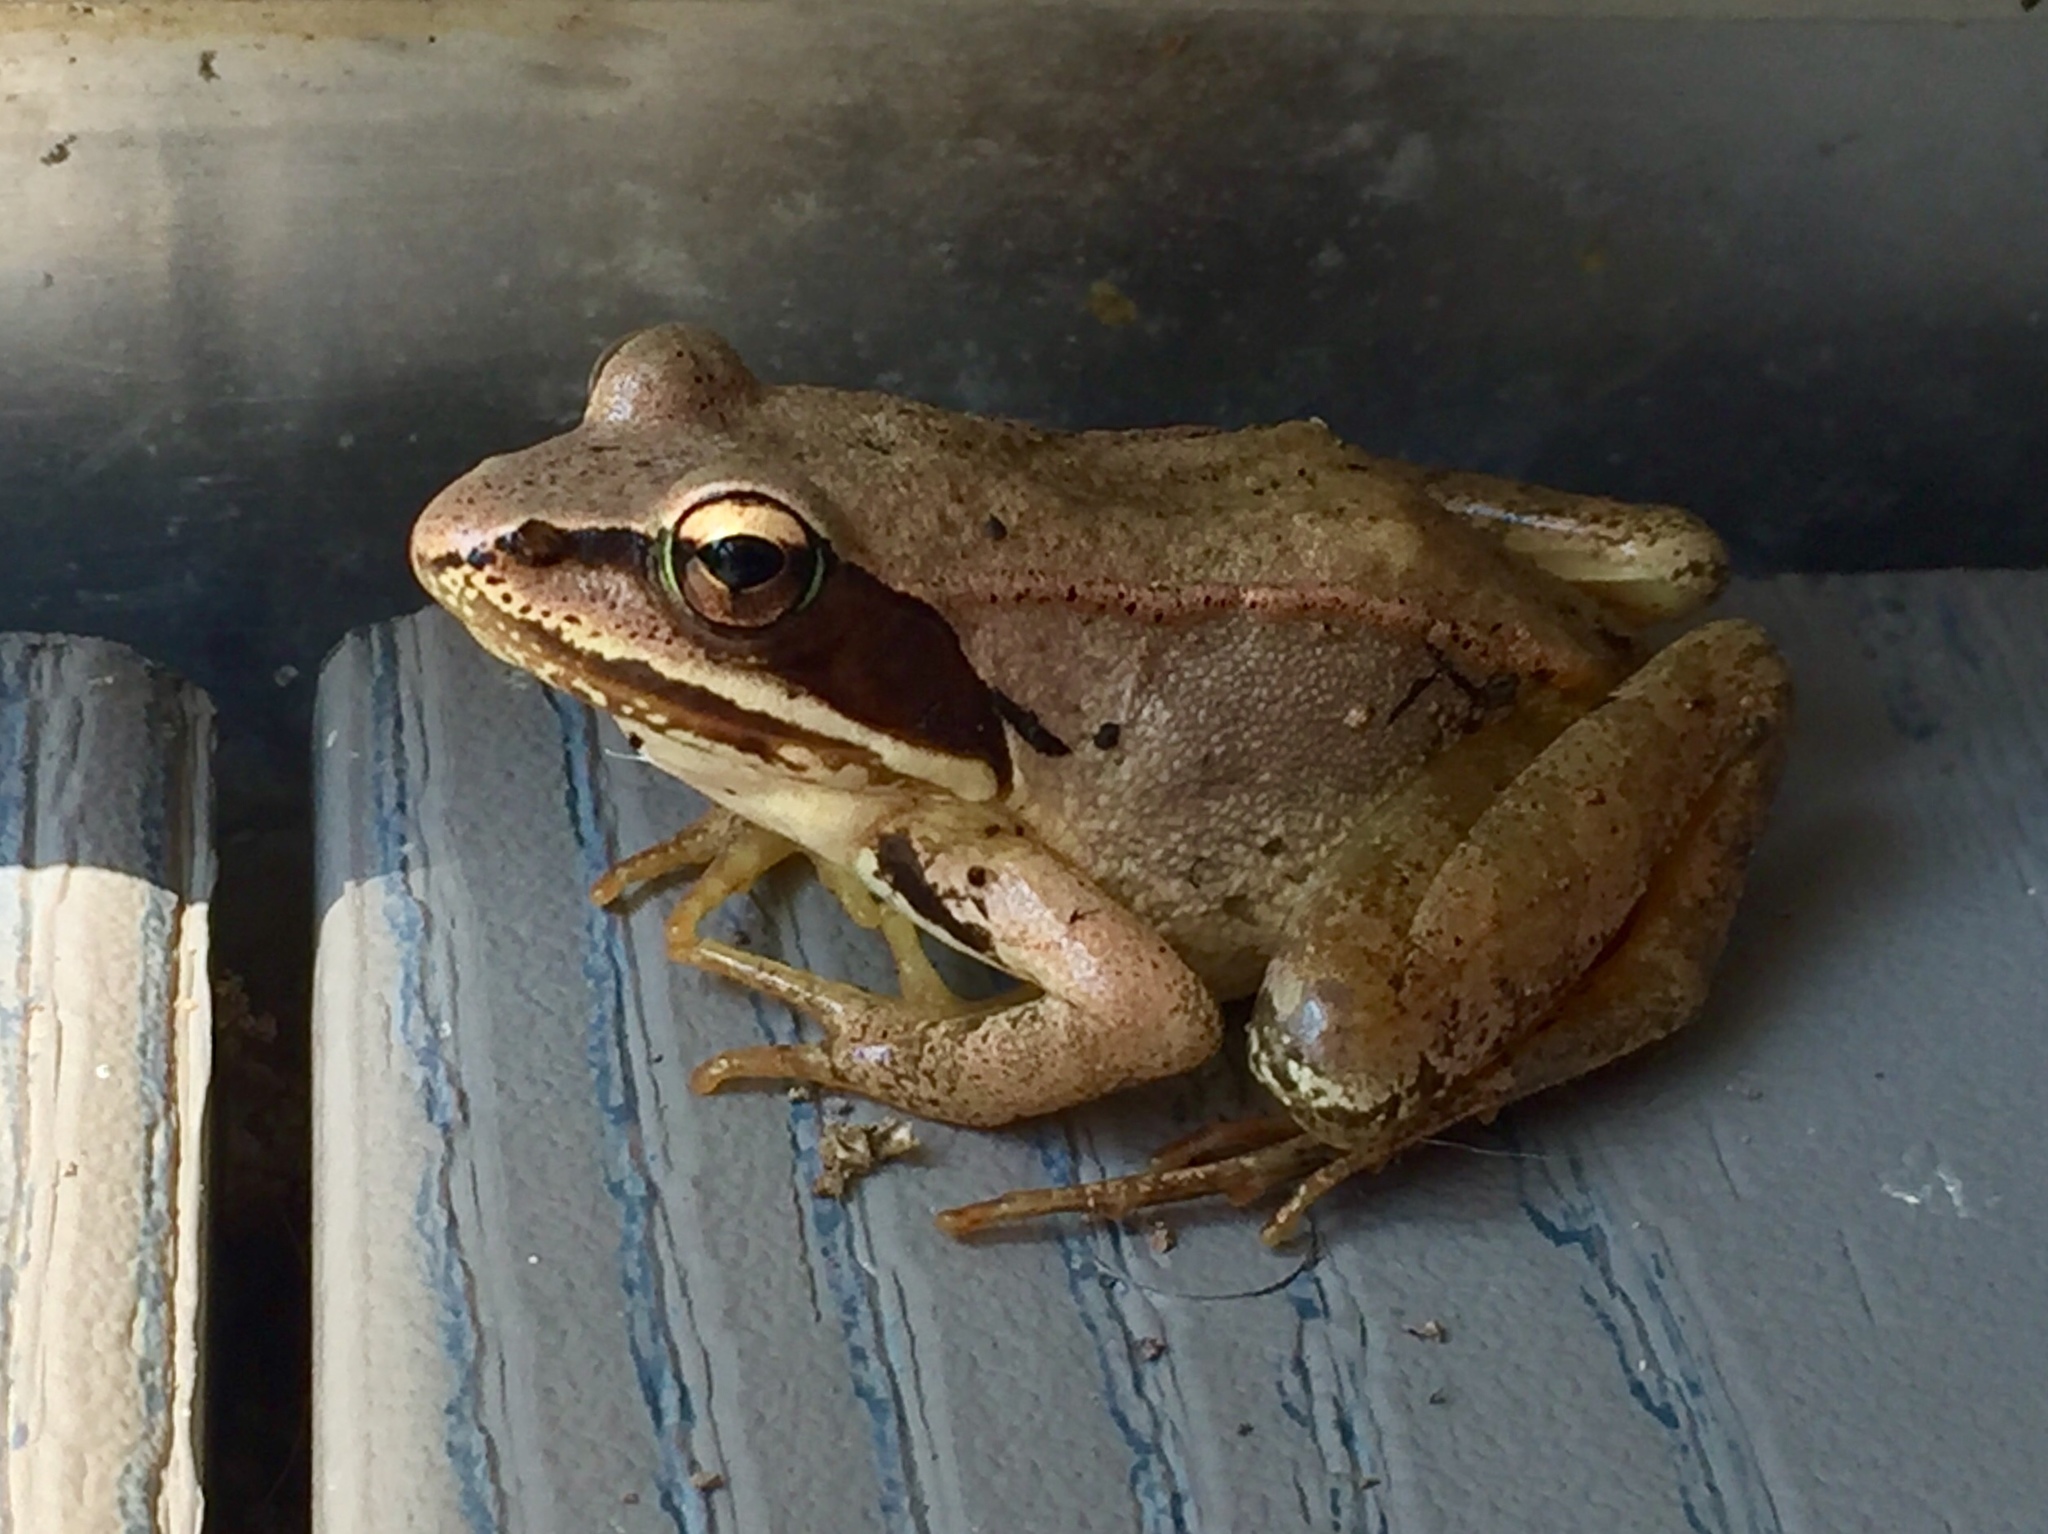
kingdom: Animalia
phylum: Chordata
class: Amphibia
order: Anura
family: Ranidae
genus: Lithobates
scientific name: Lithobates sylvaticus
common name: Wood frog
